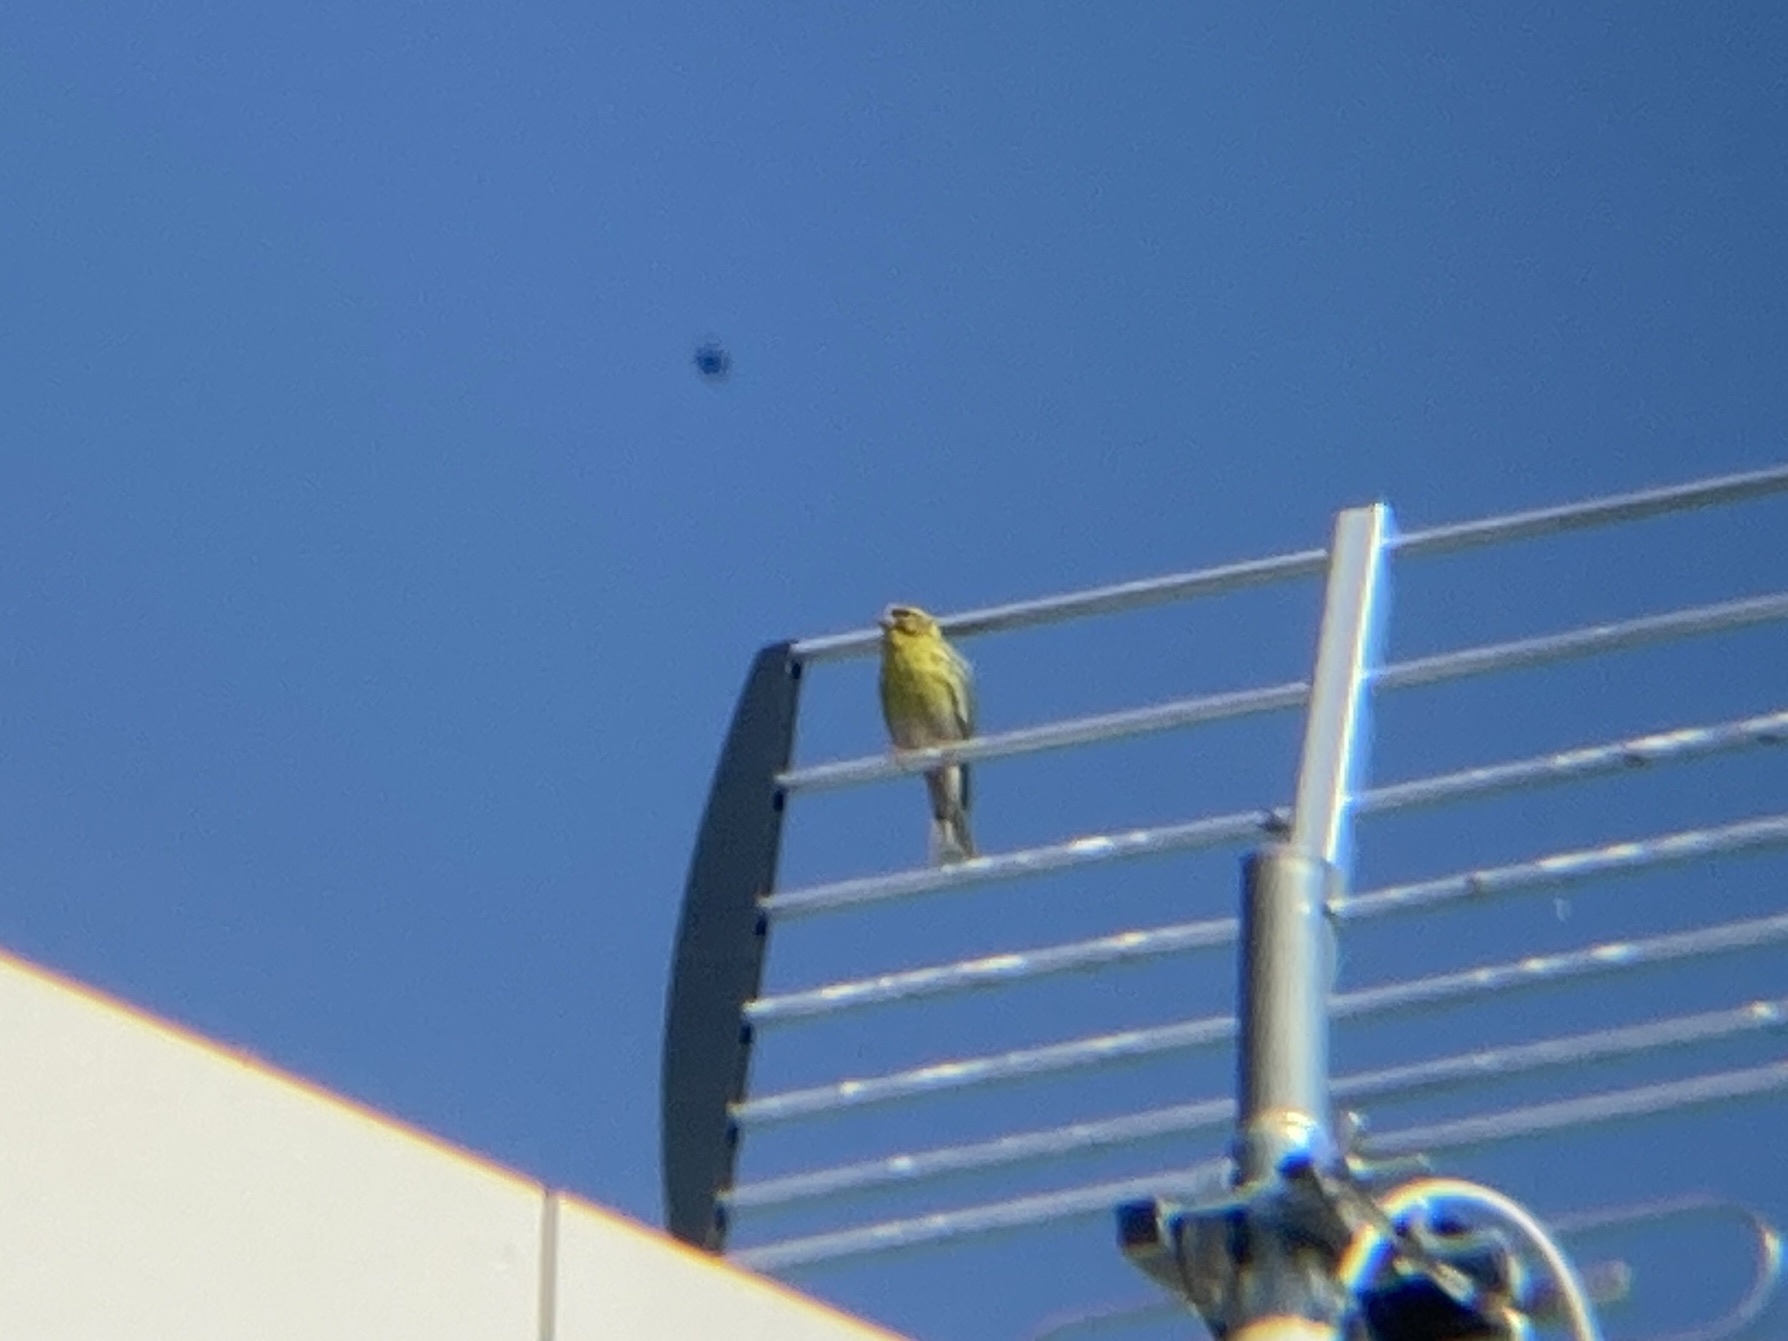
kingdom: Animalia
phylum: Chordata
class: Aves
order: Passeriformes
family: Fringillidae
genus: Serinus
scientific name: Serinus serinus
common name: European serin
